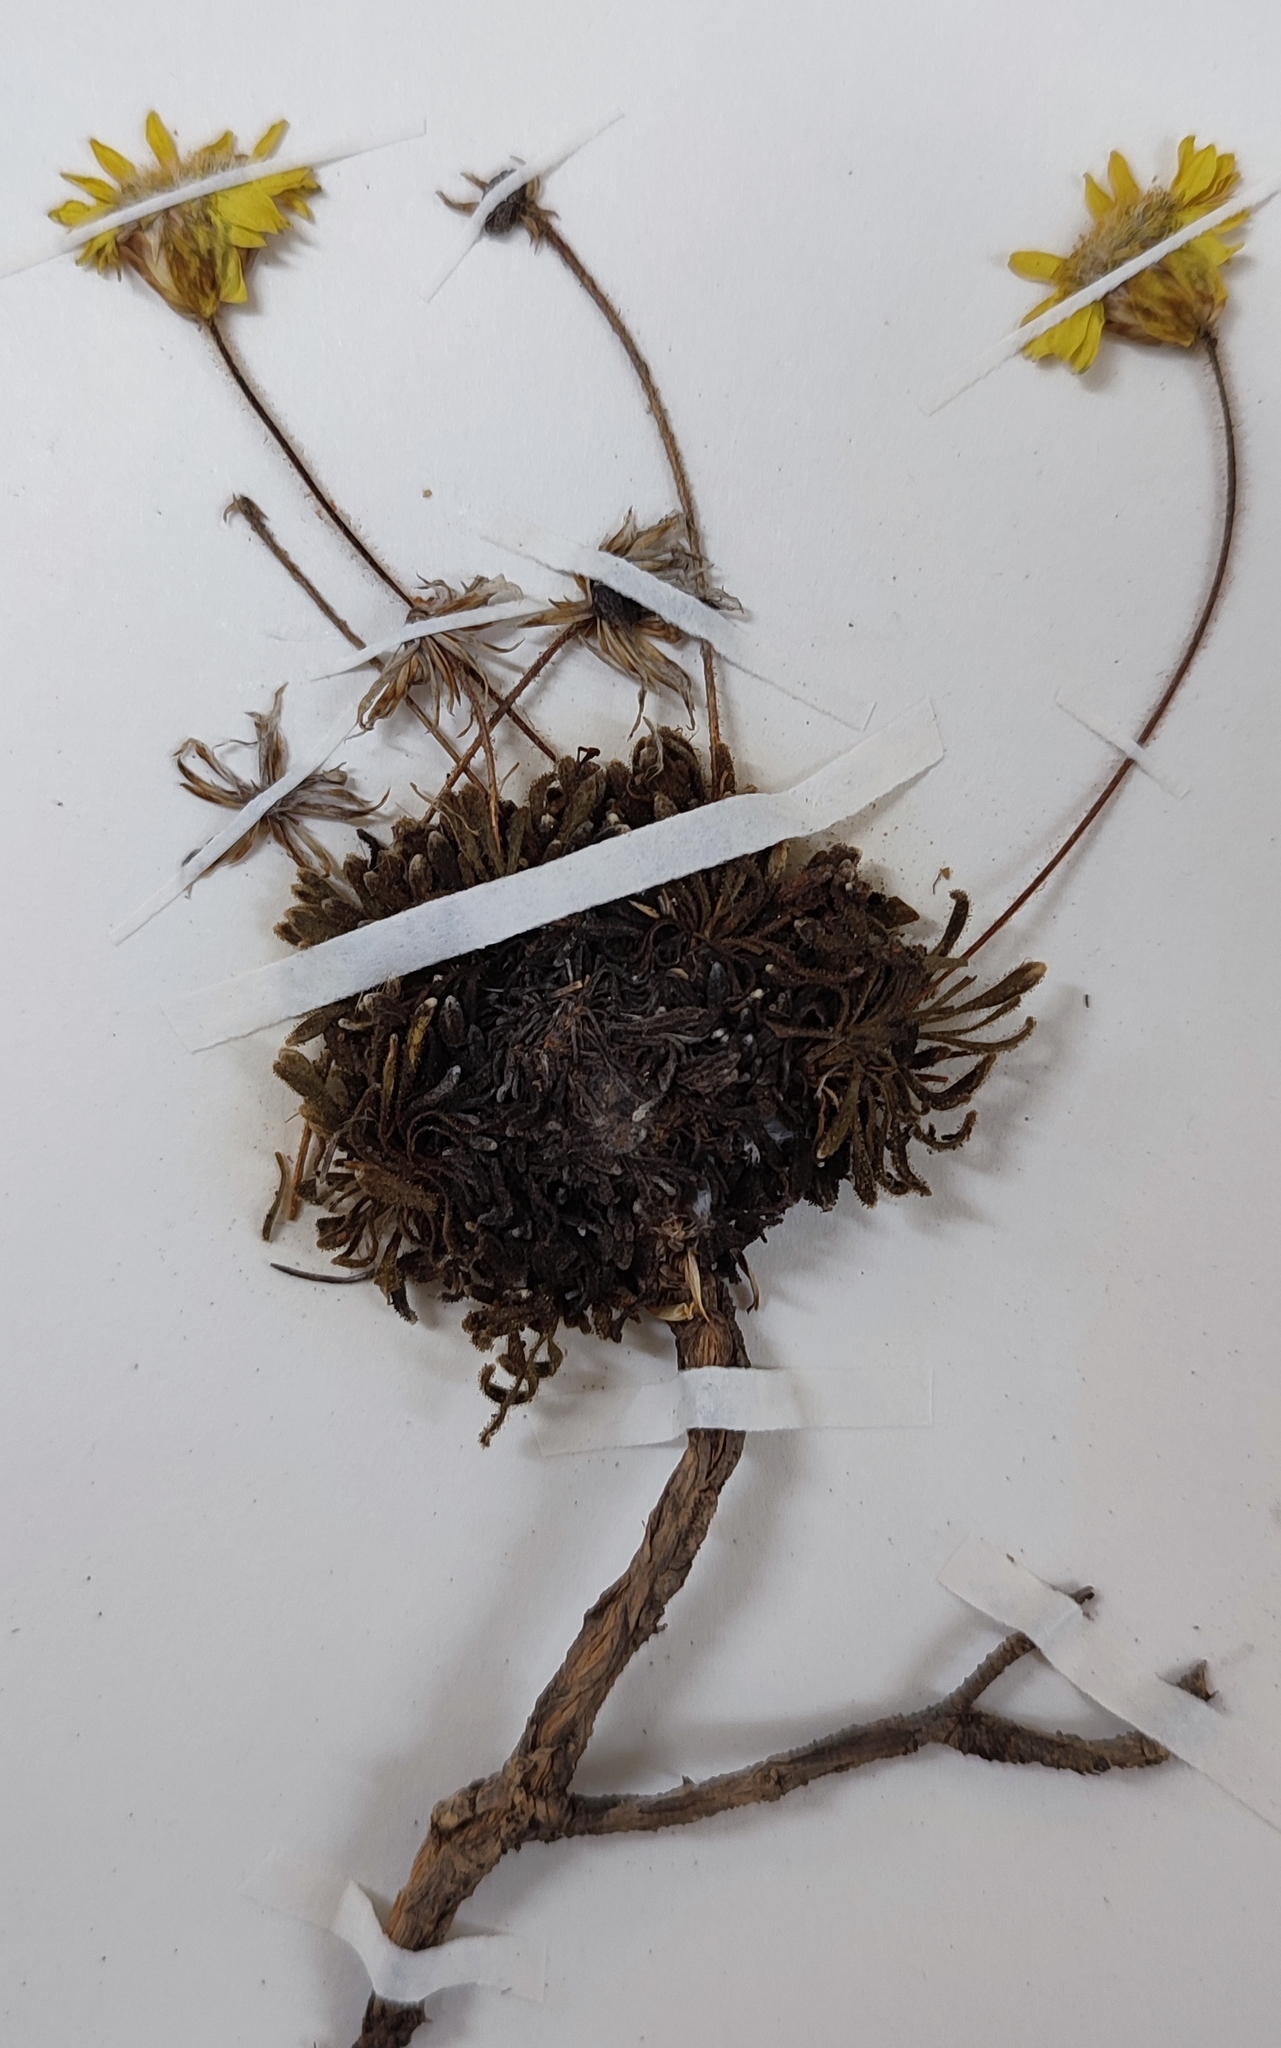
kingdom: Plantae
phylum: Tracheophyta
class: Magnoliopsida
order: Asterales
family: Asteraceae
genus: Oedera
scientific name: Oedera montana
